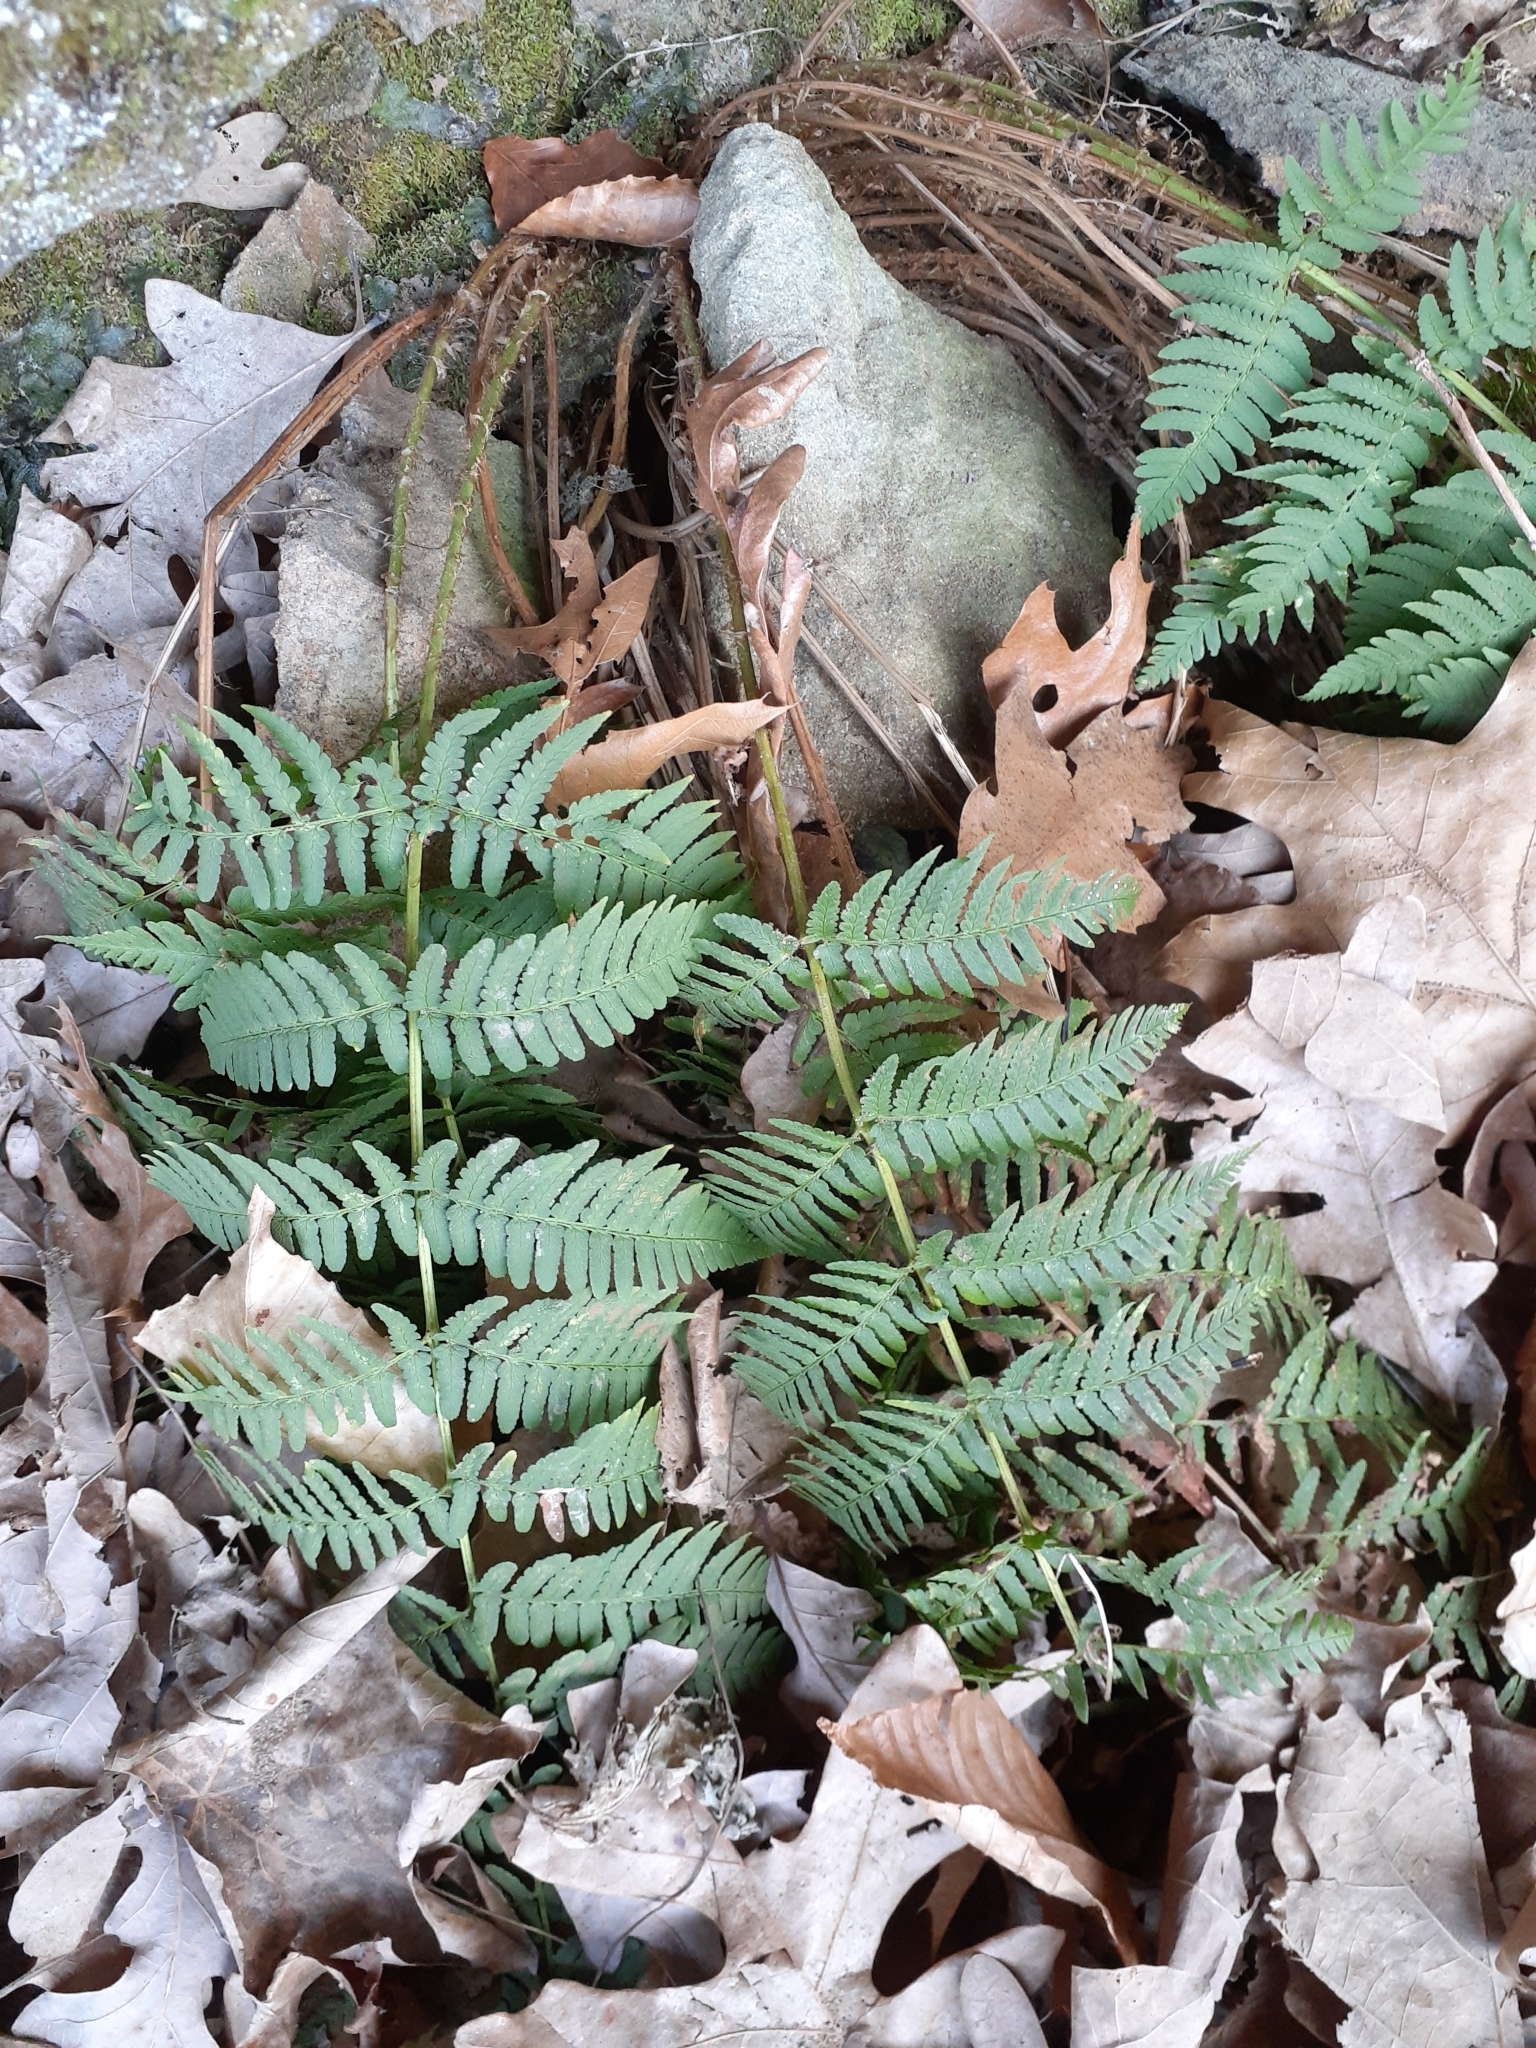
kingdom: Plantae
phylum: Tracheophyta
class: Polypodiopsida
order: Polypodiales
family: Dryopteridaceae
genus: Dryopteris
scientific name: Dryopteris marginalis
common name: Marginal wood fern
